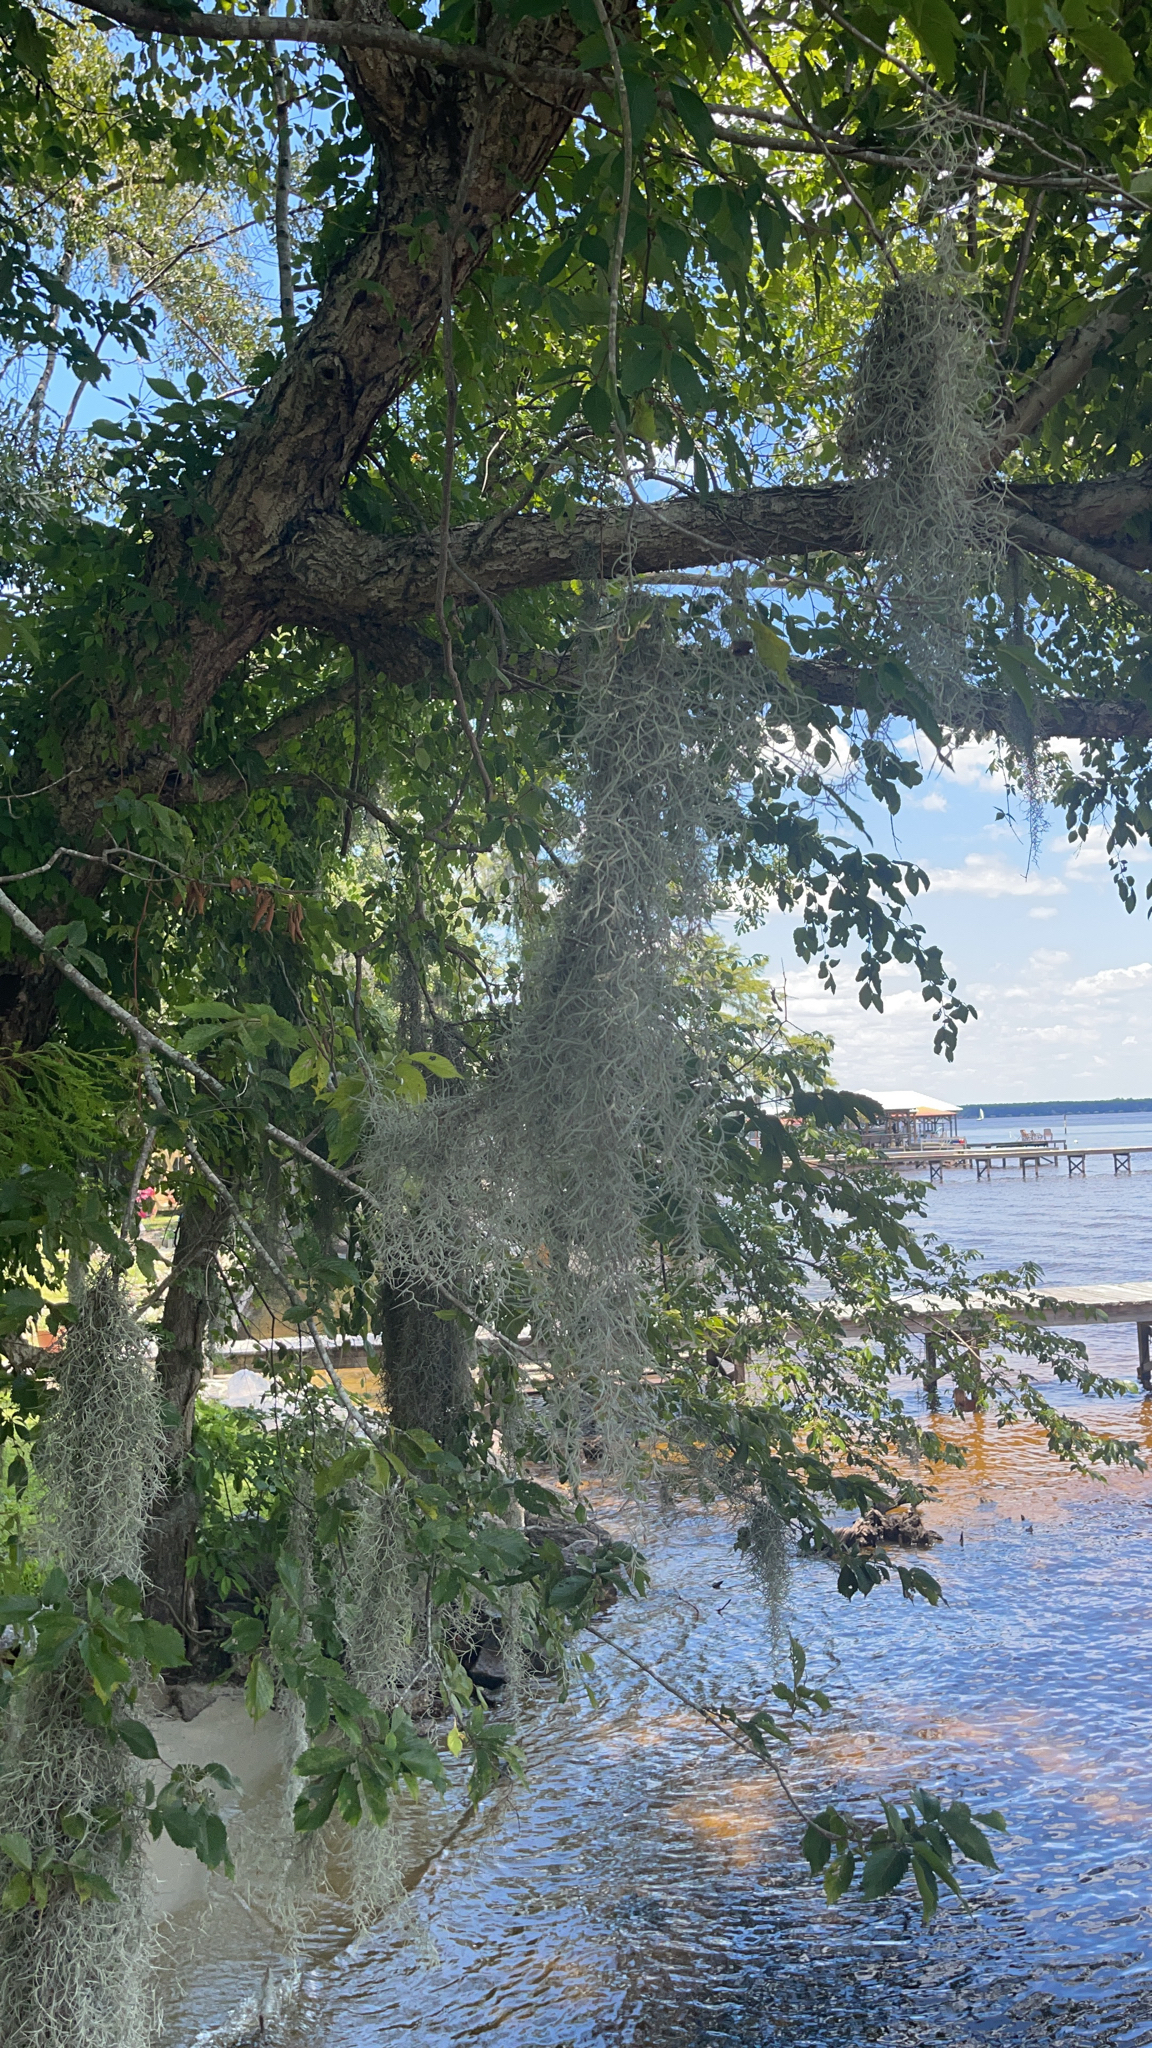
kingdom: Plantae
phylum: Tracheophyta
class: Liliopsida
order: Poales
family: Bromeliaceae
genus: Tillandsia
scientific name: Tillandsia usneoides
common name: Spanish moss
